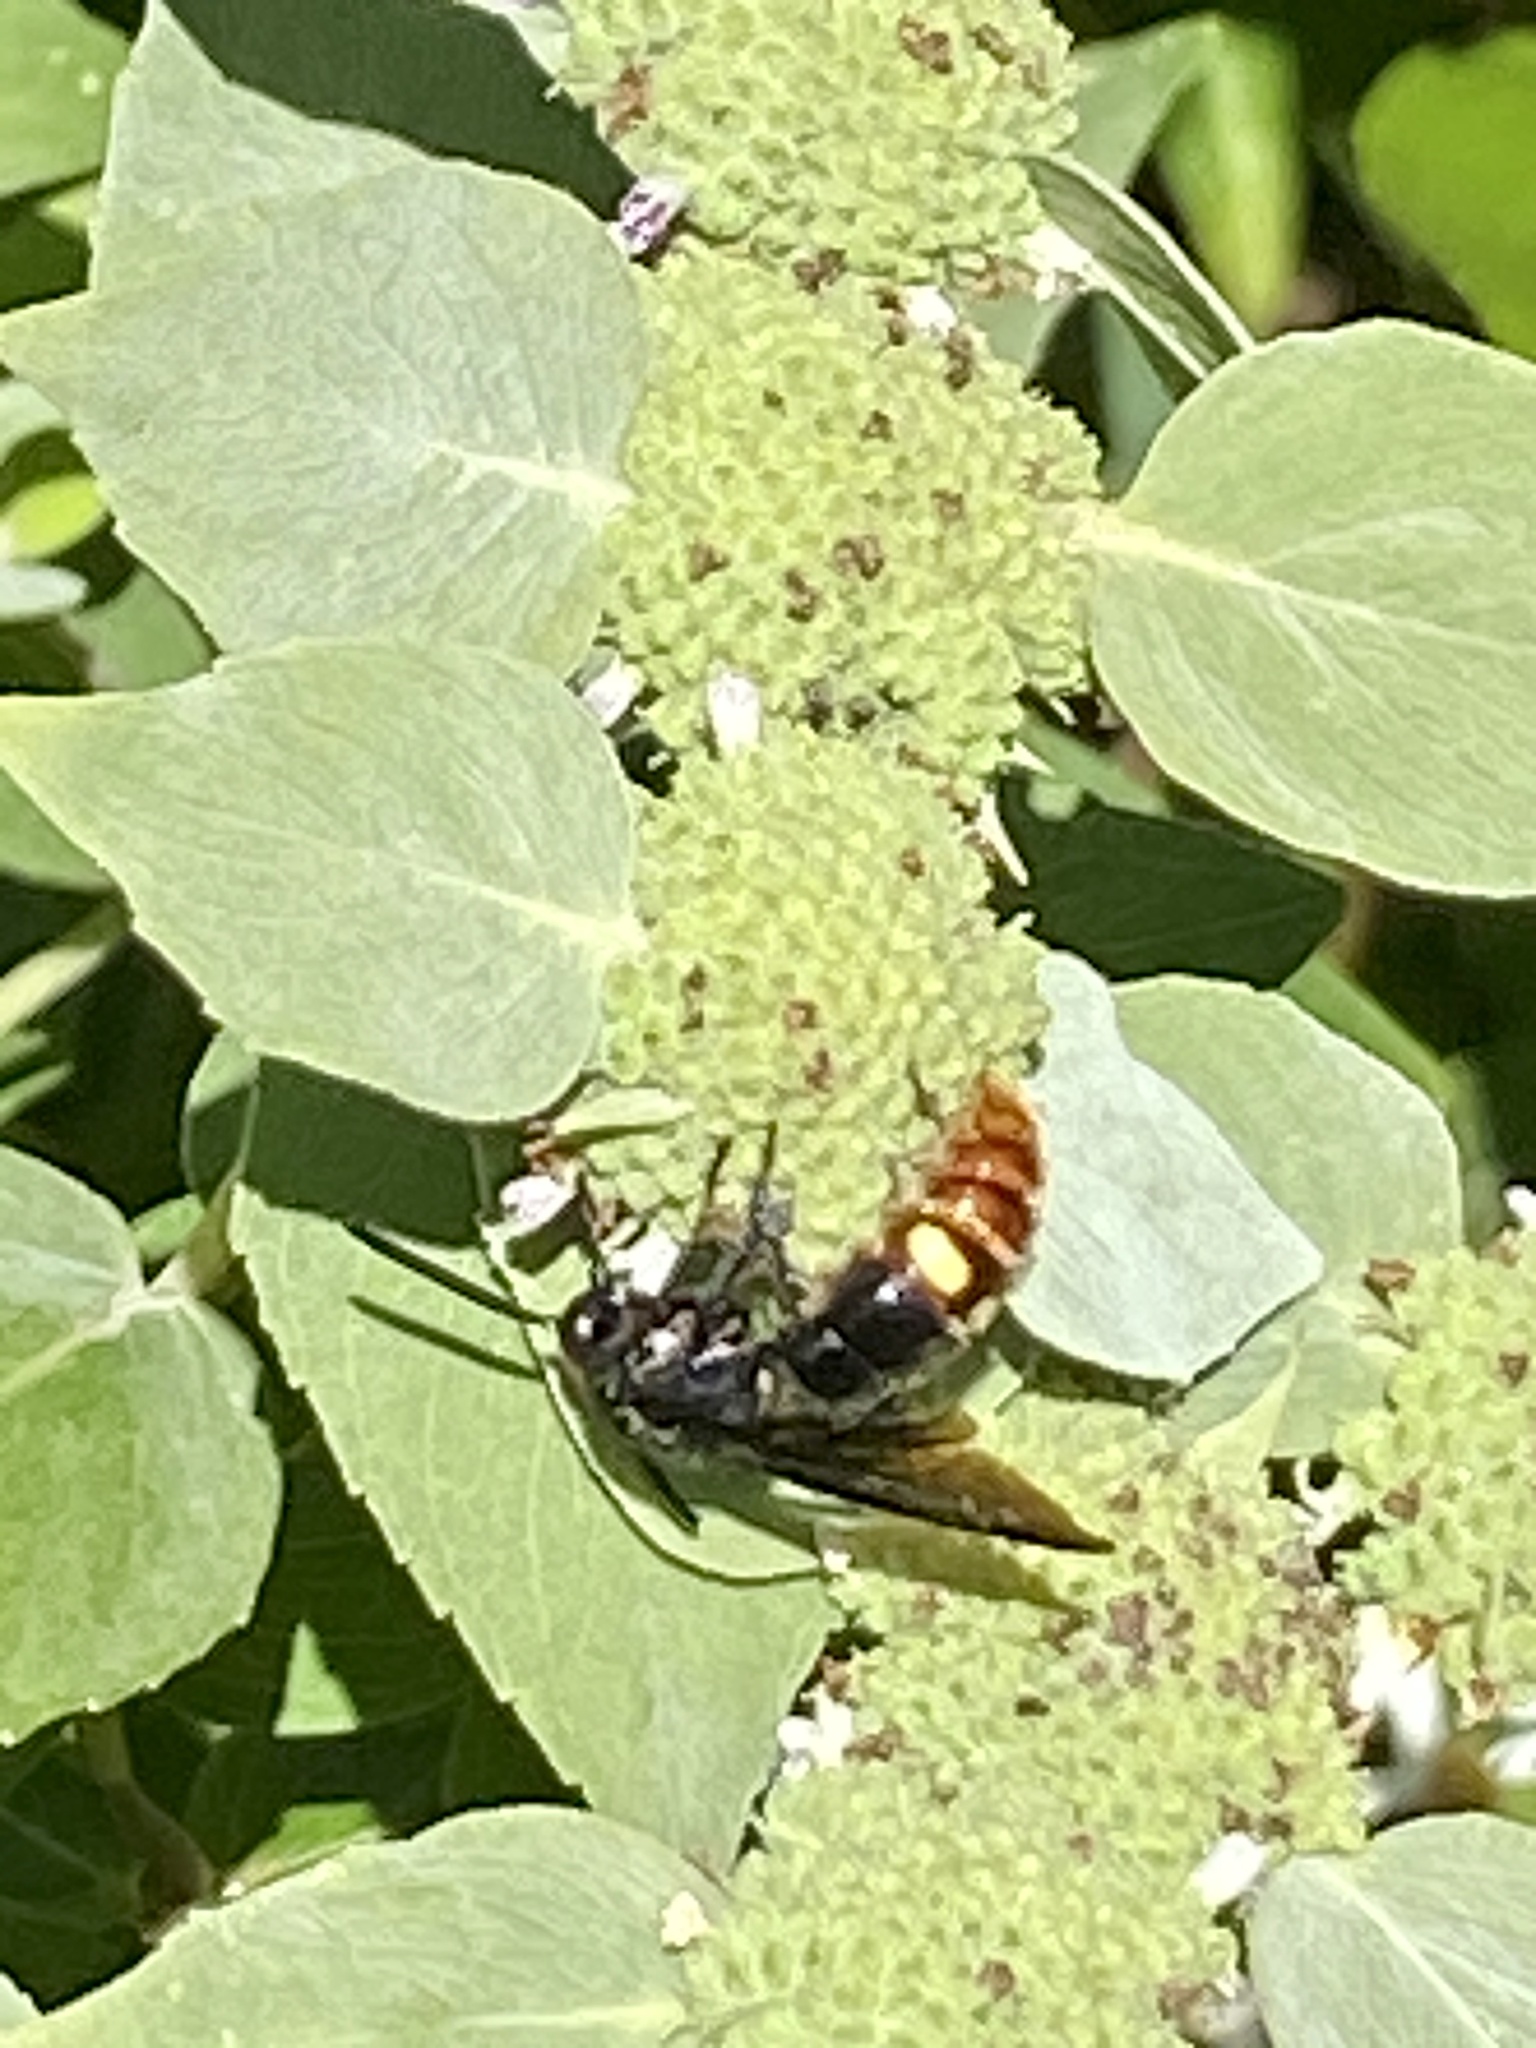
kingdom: Animalia
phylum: Arthropoda
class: Insecta
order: Hymenoptera
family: Scoliidae
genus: Scolia
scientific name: Scolia dubia
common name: Blue-winged scoliid wasp
